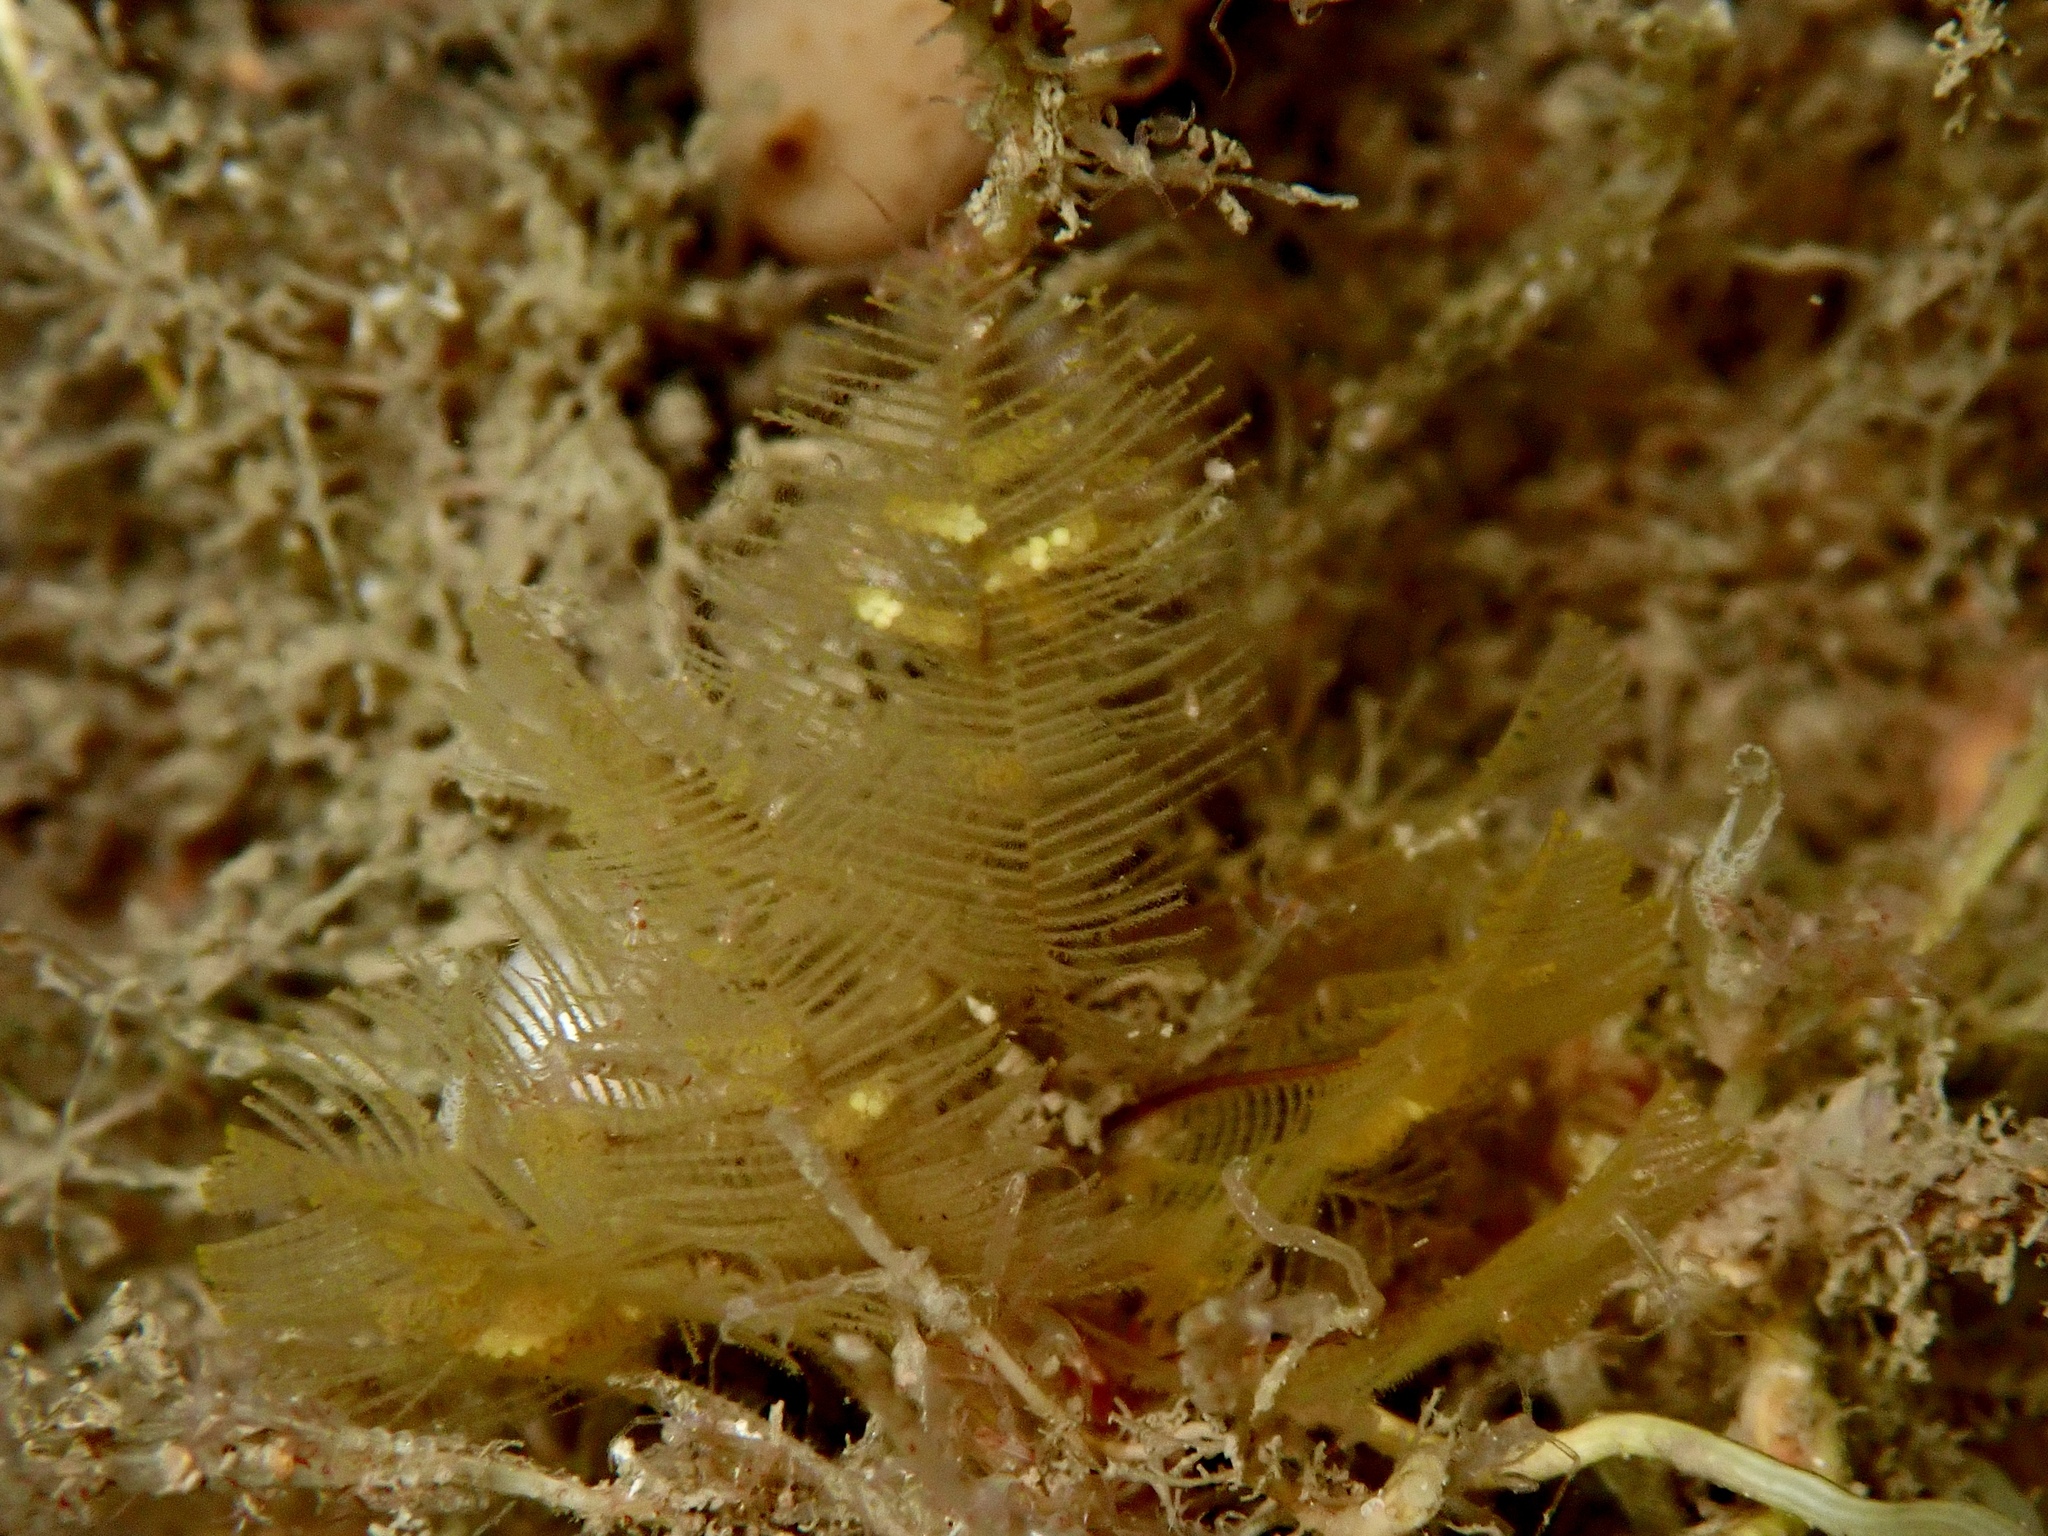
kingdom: Animalia
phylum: Cnidaria
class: Hydrozoa
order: Leptothecata
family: Aglaopheniidae
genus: Aglaophenia
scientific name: Aglaophenia tubulifera
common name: Plume hydroid
